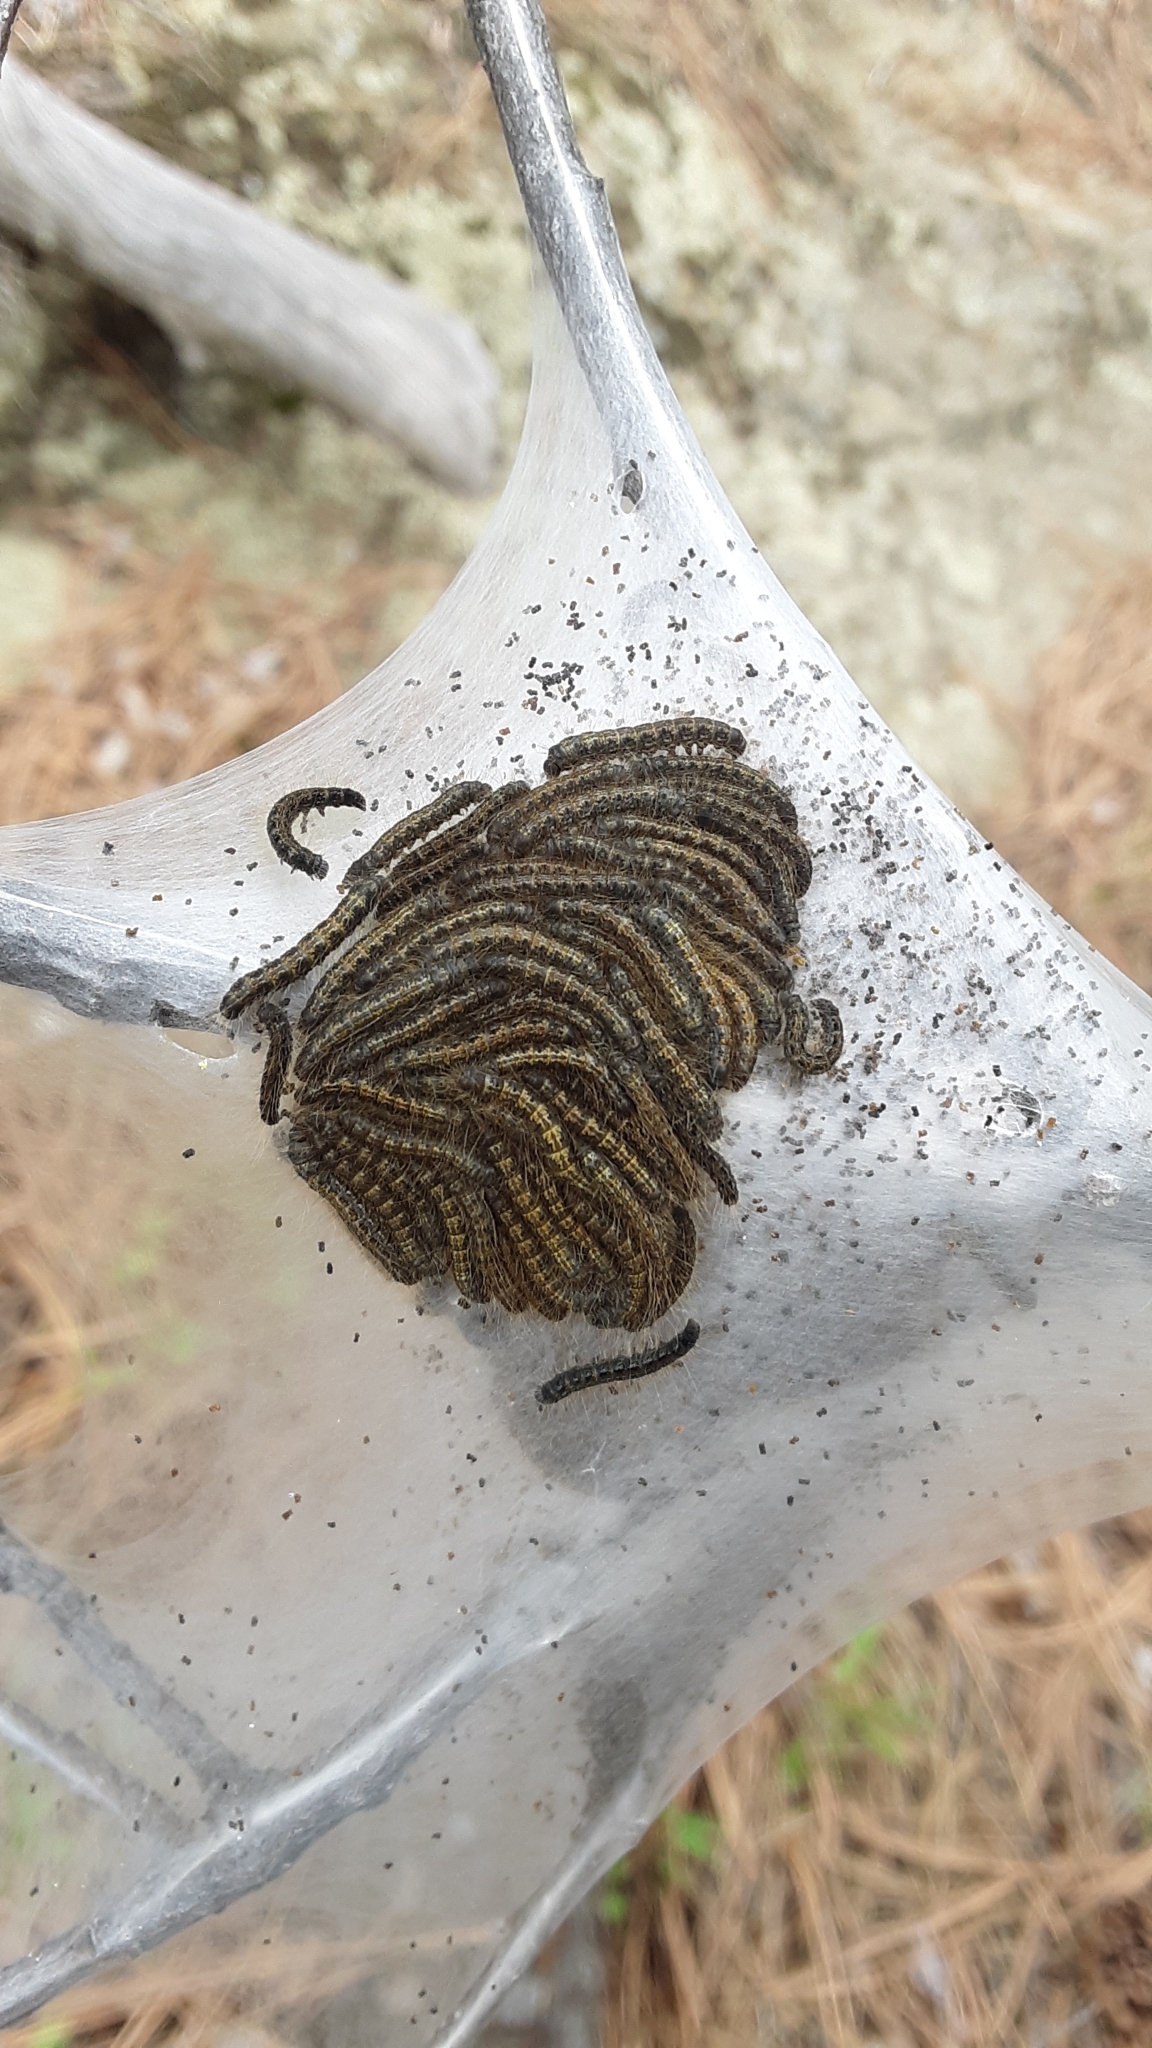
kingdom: Animalia
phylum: Arthropoda
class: Insecta
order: Lepidoptera
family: Lasiocampidae
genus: Malacosoma
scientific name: Malacosoma californica
